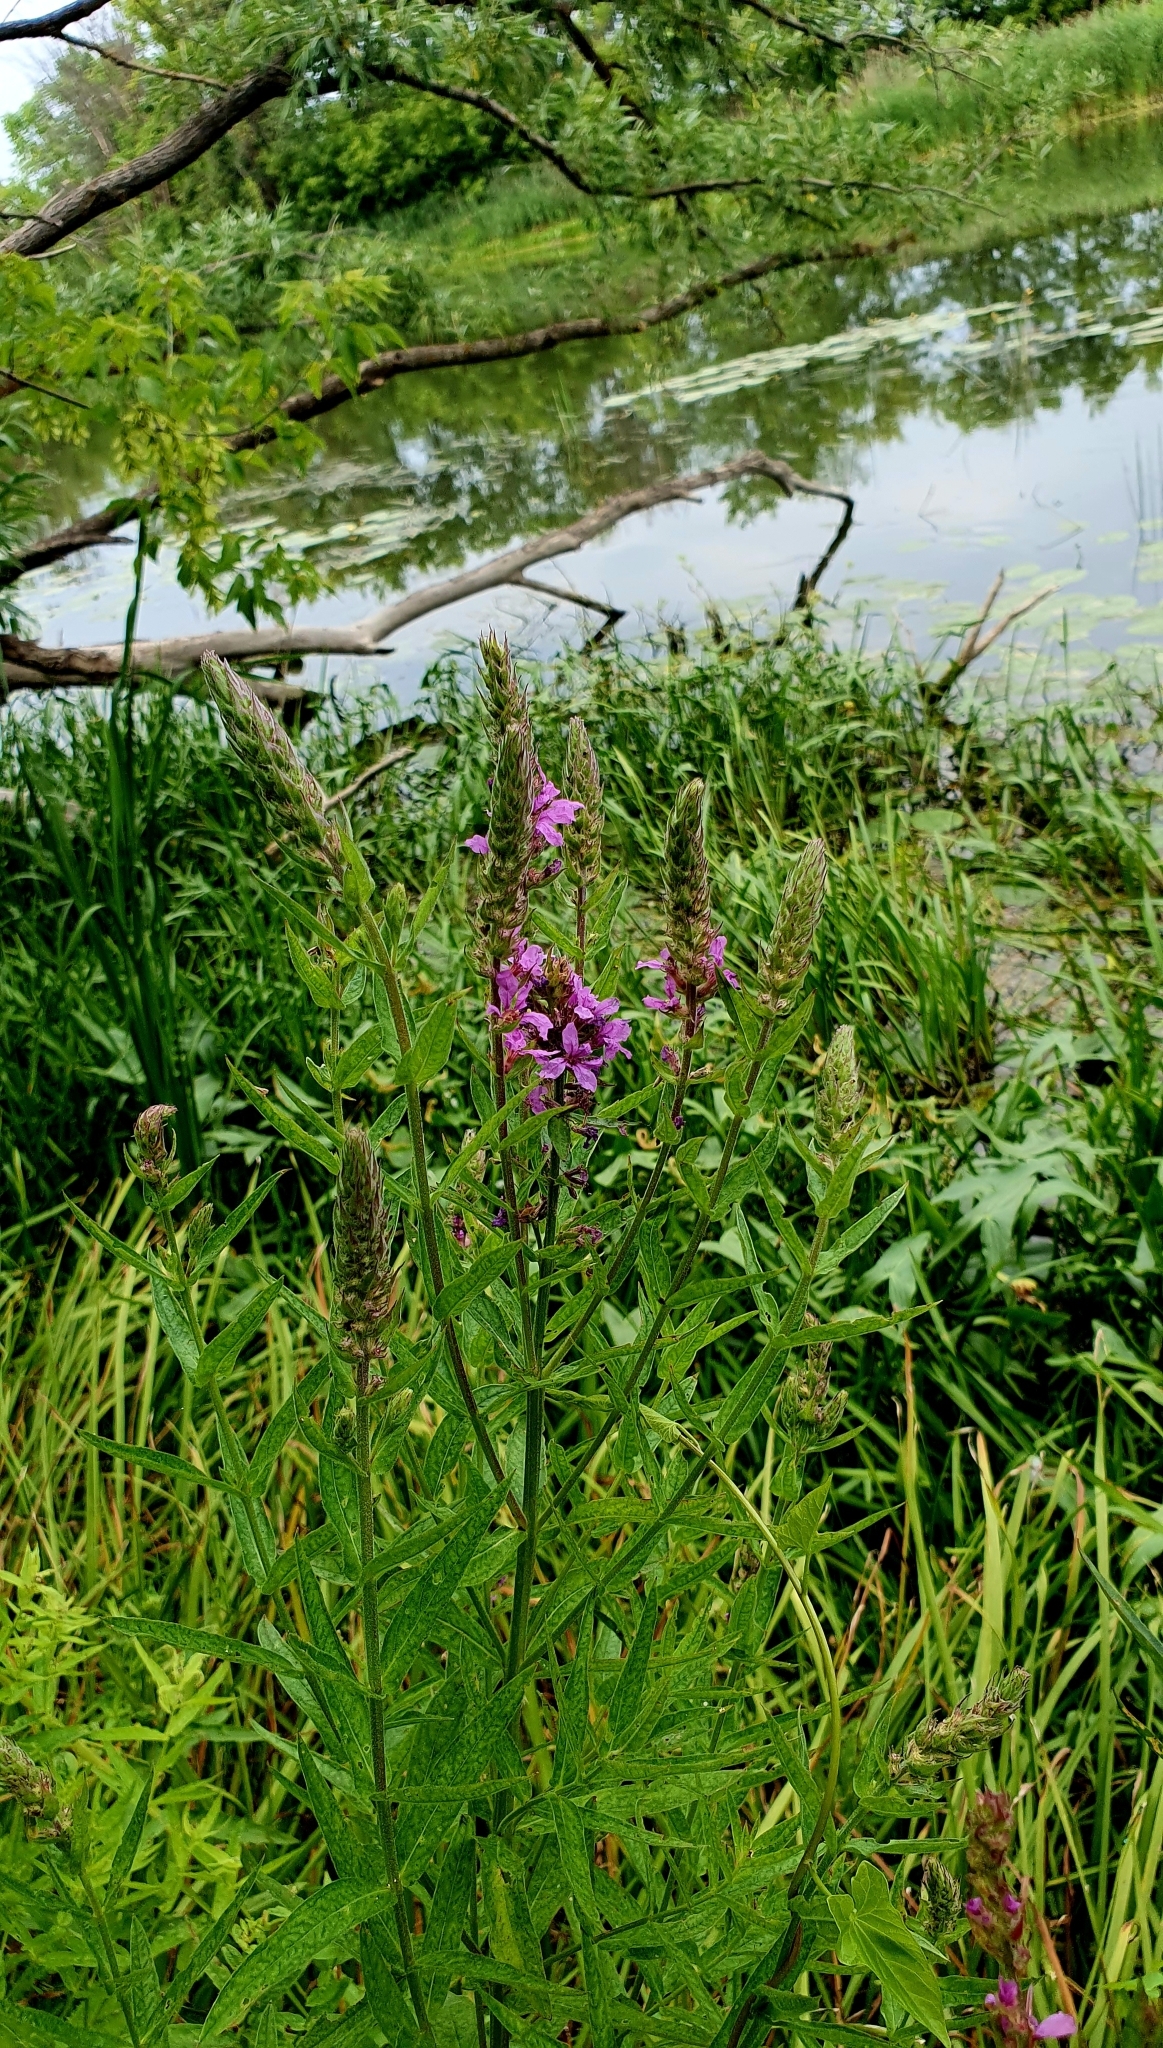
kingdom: Plantae
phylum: Tracheophyta
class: Magnoliopsida
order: Myrtales
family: Lythraceae
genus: Lythrum
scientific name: Lythrum salicaria
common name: Purple loosestrife
